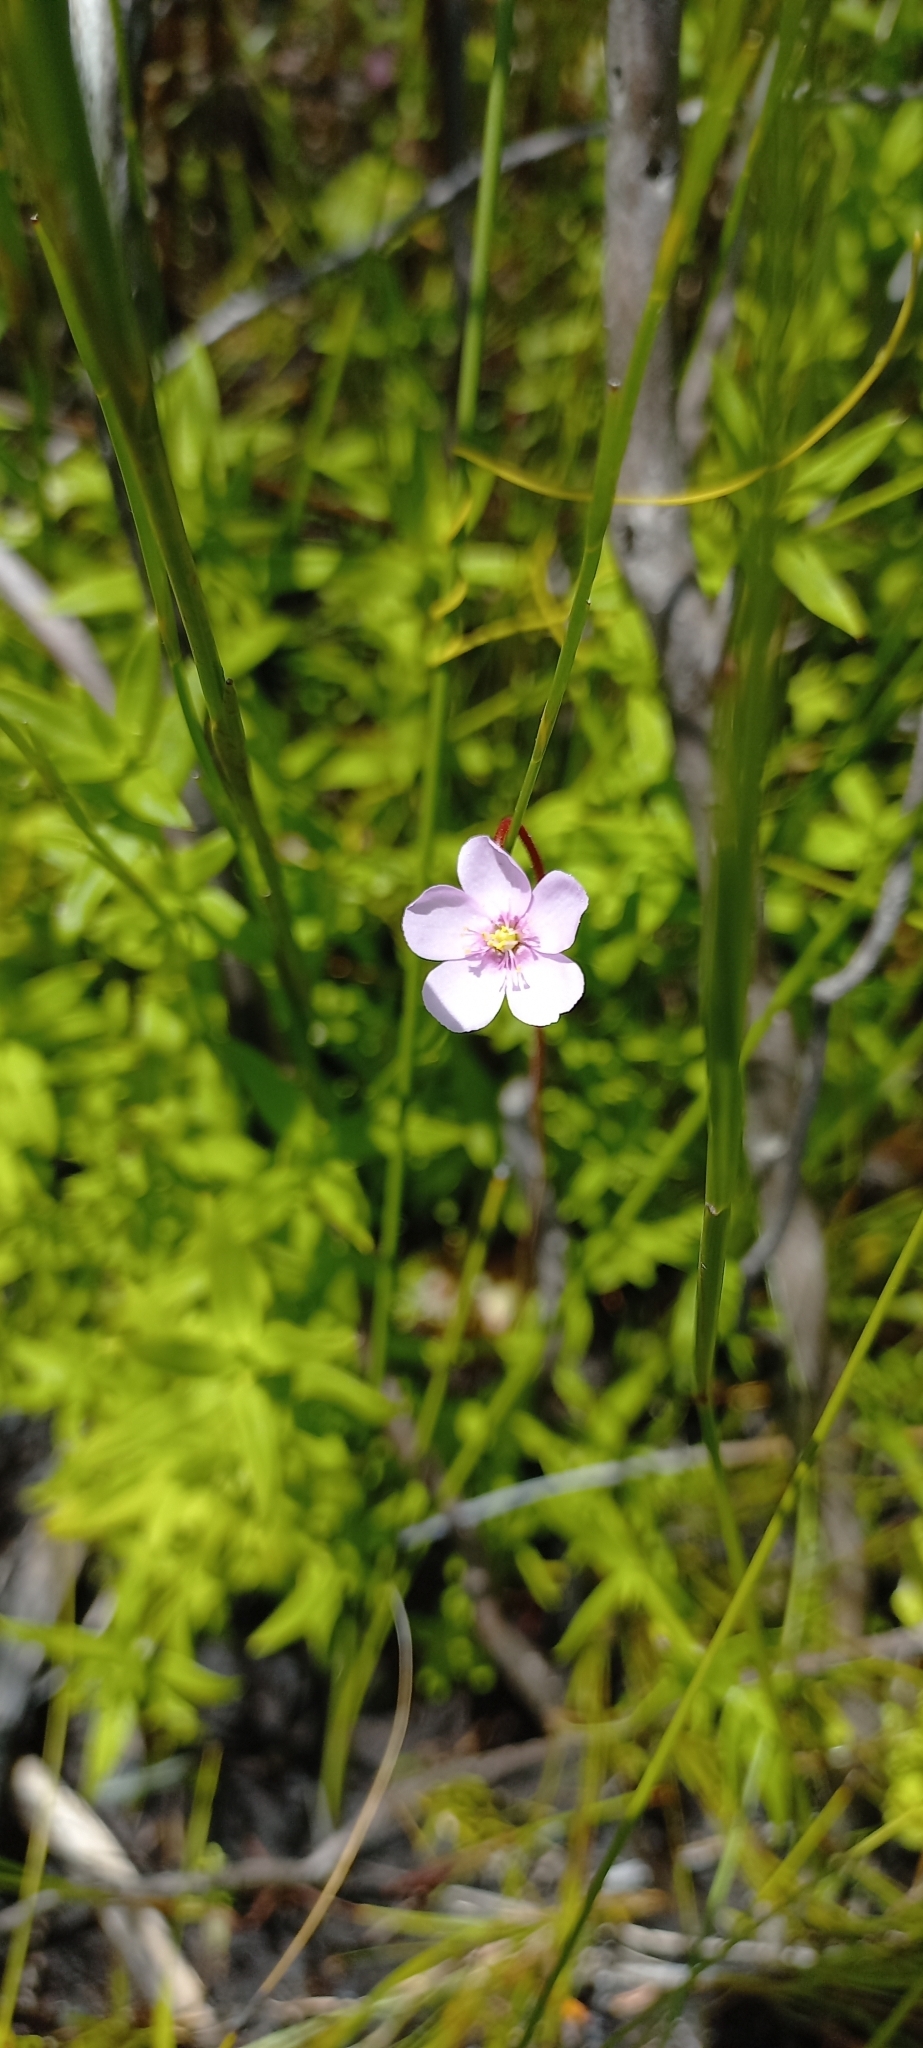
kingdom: Plantae
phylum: Tracheophyta
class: Magnoliopsida
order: Caryophyllales
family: Droseraceae
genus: Drosera
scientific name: Drosera aliciae
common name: Alice sundew
